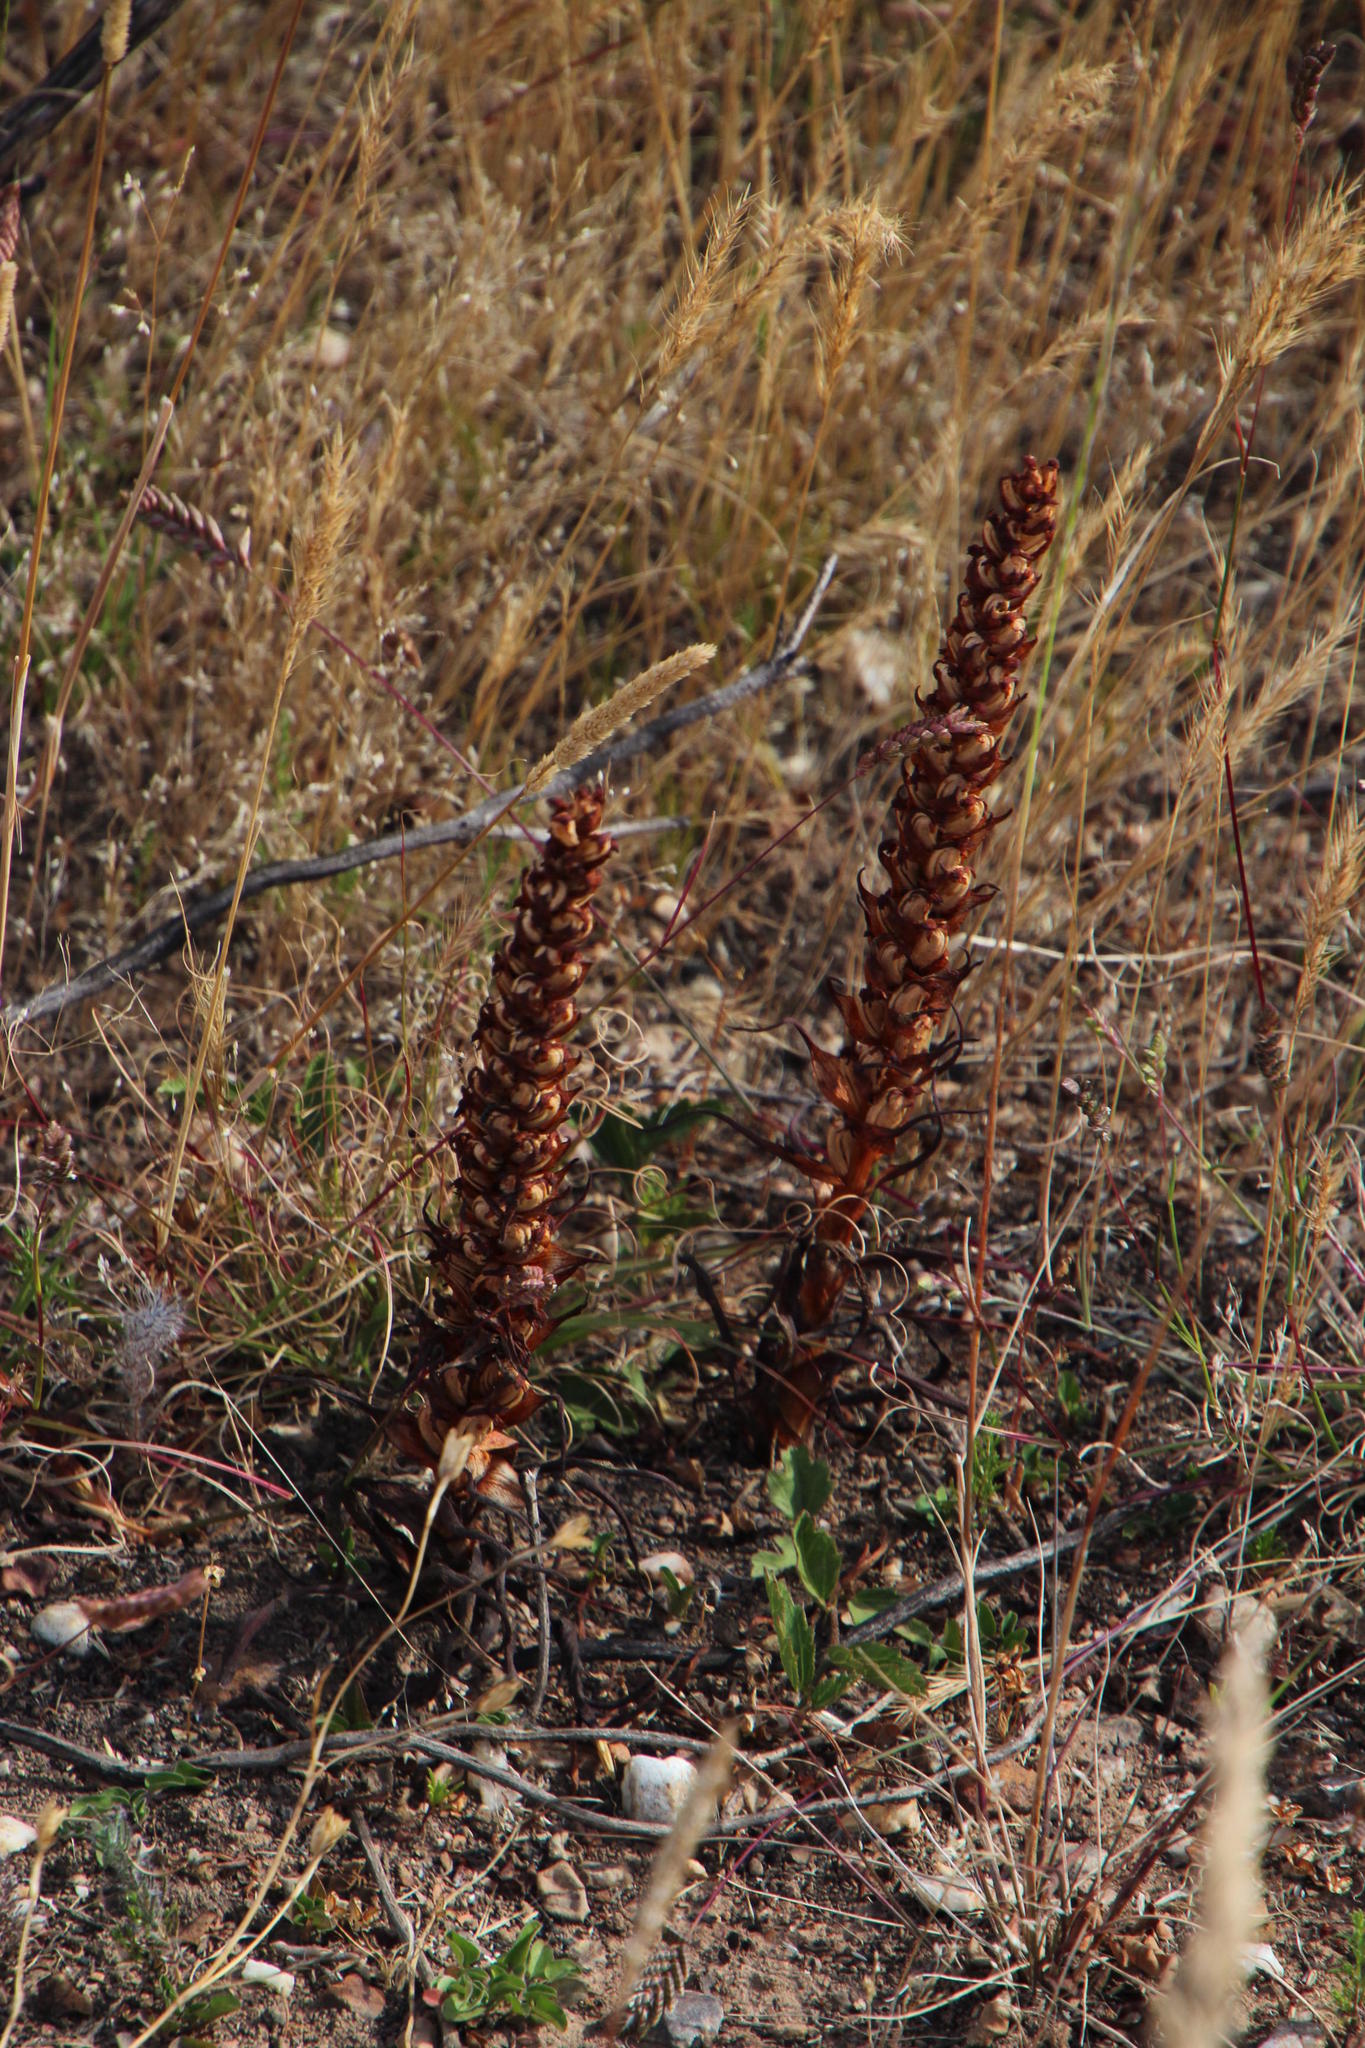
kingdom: Plantae
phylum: Tracheophyta
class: Liliopsida
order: Asparagales
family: Orchidaceae
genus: Disa
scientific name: Disa bracteata
